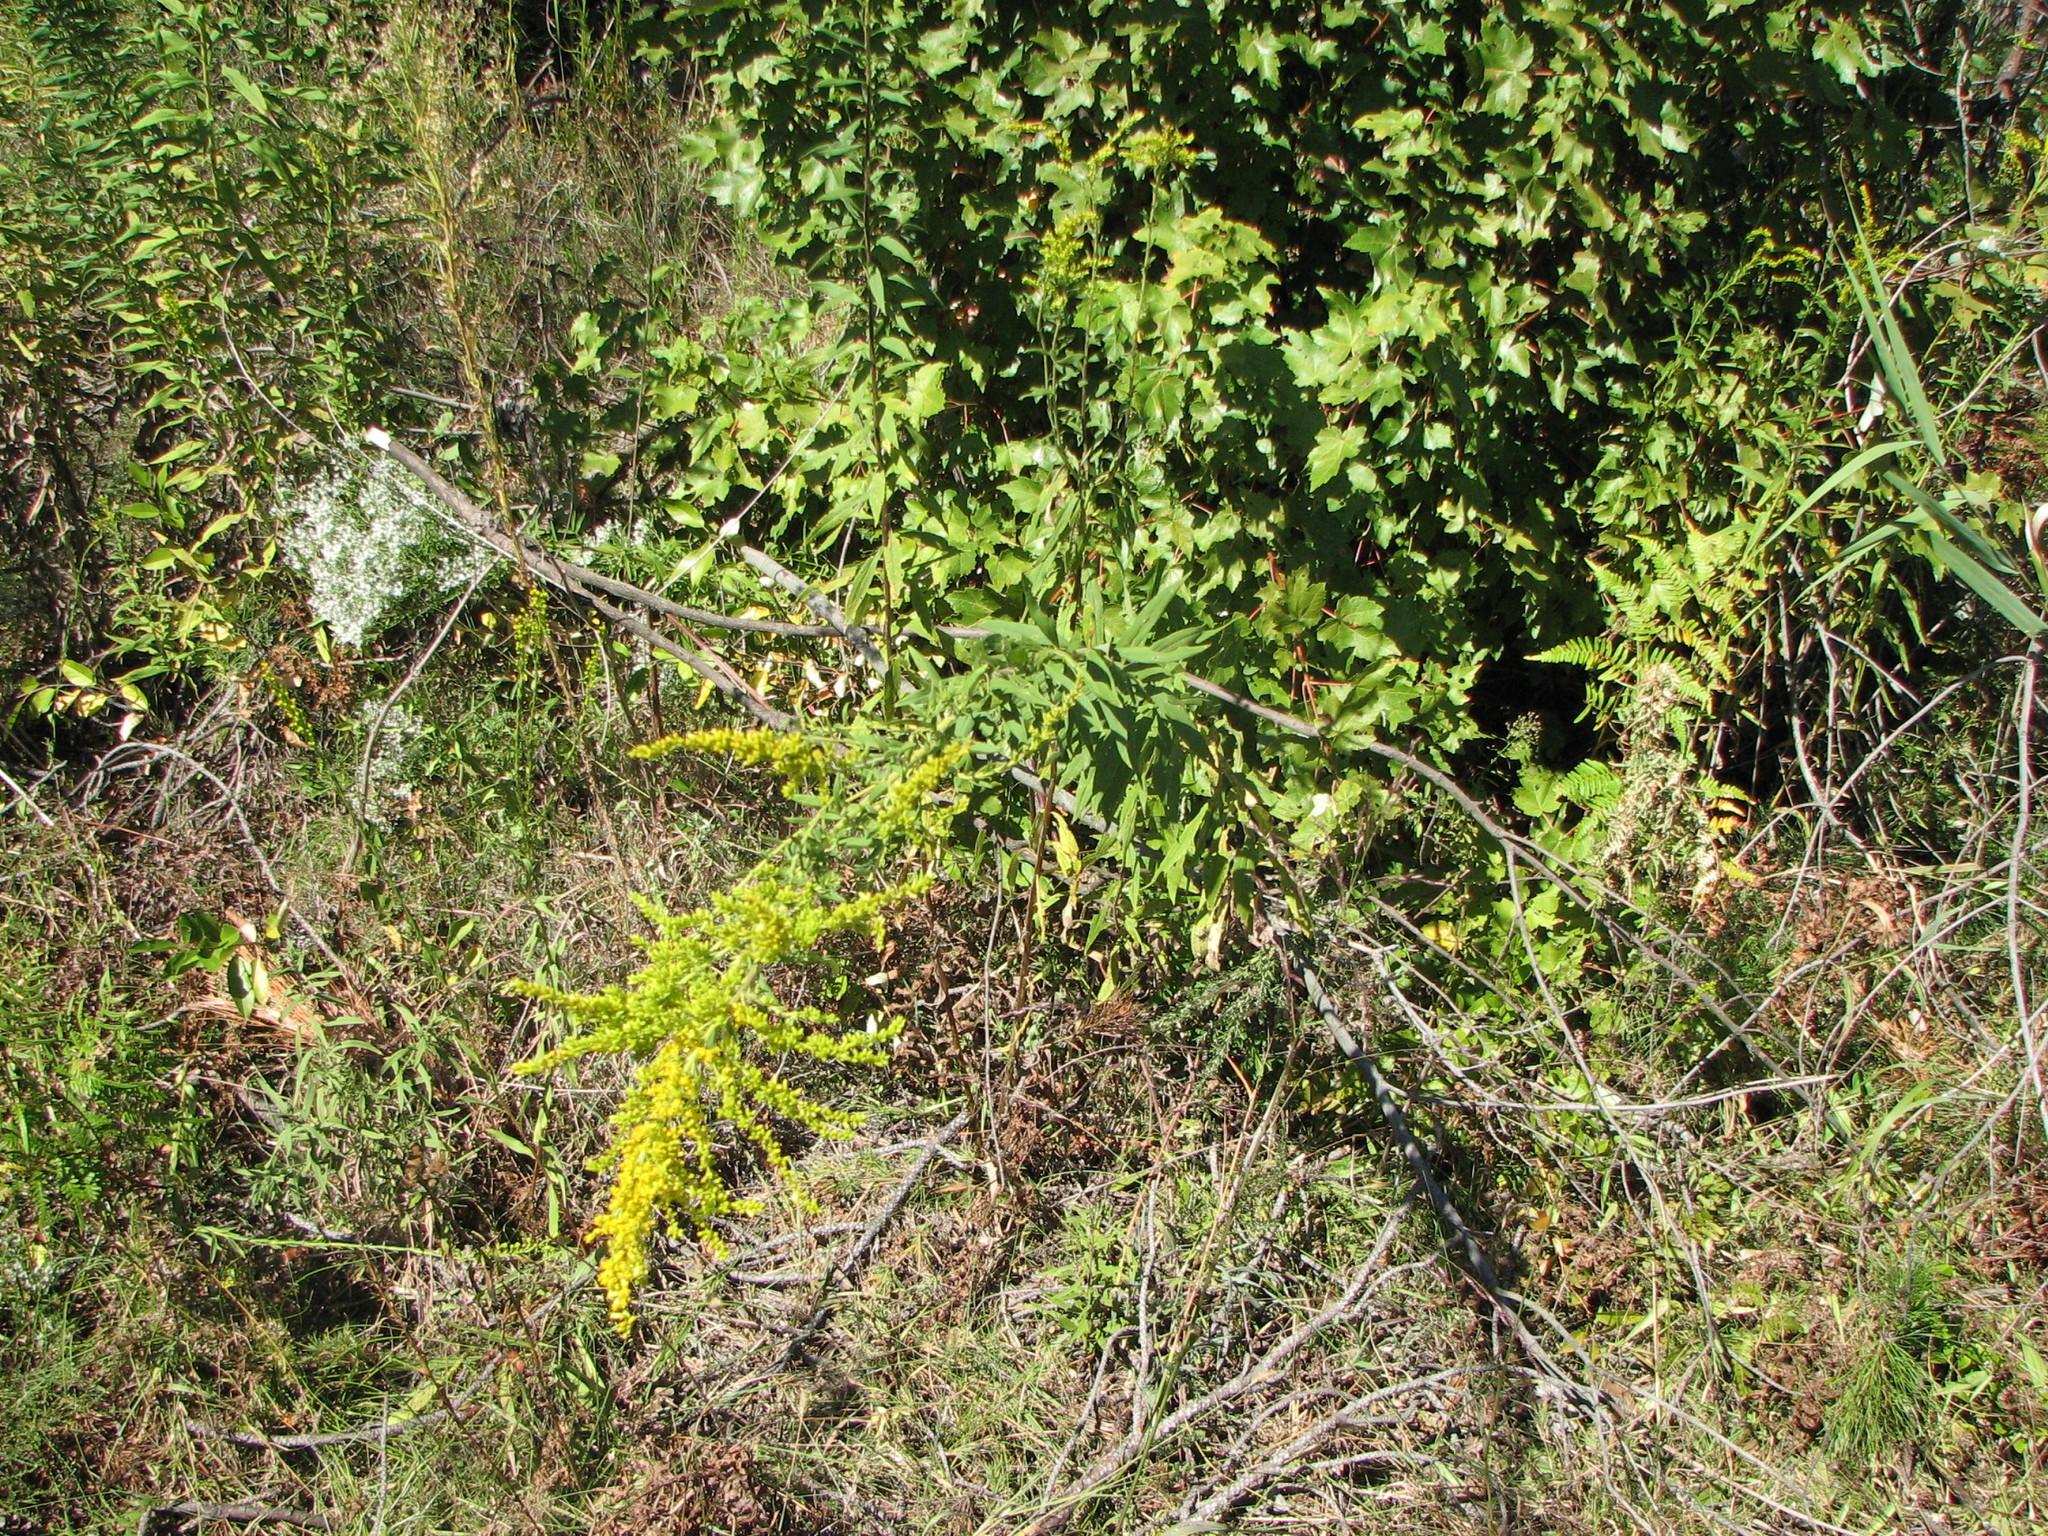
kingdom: Plantae
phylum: Tracheophyta
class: Magnoliopsida
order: Asterales
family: Asteraceae
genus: Solidago
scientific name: Solidago altissima
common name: Late goldenrod
